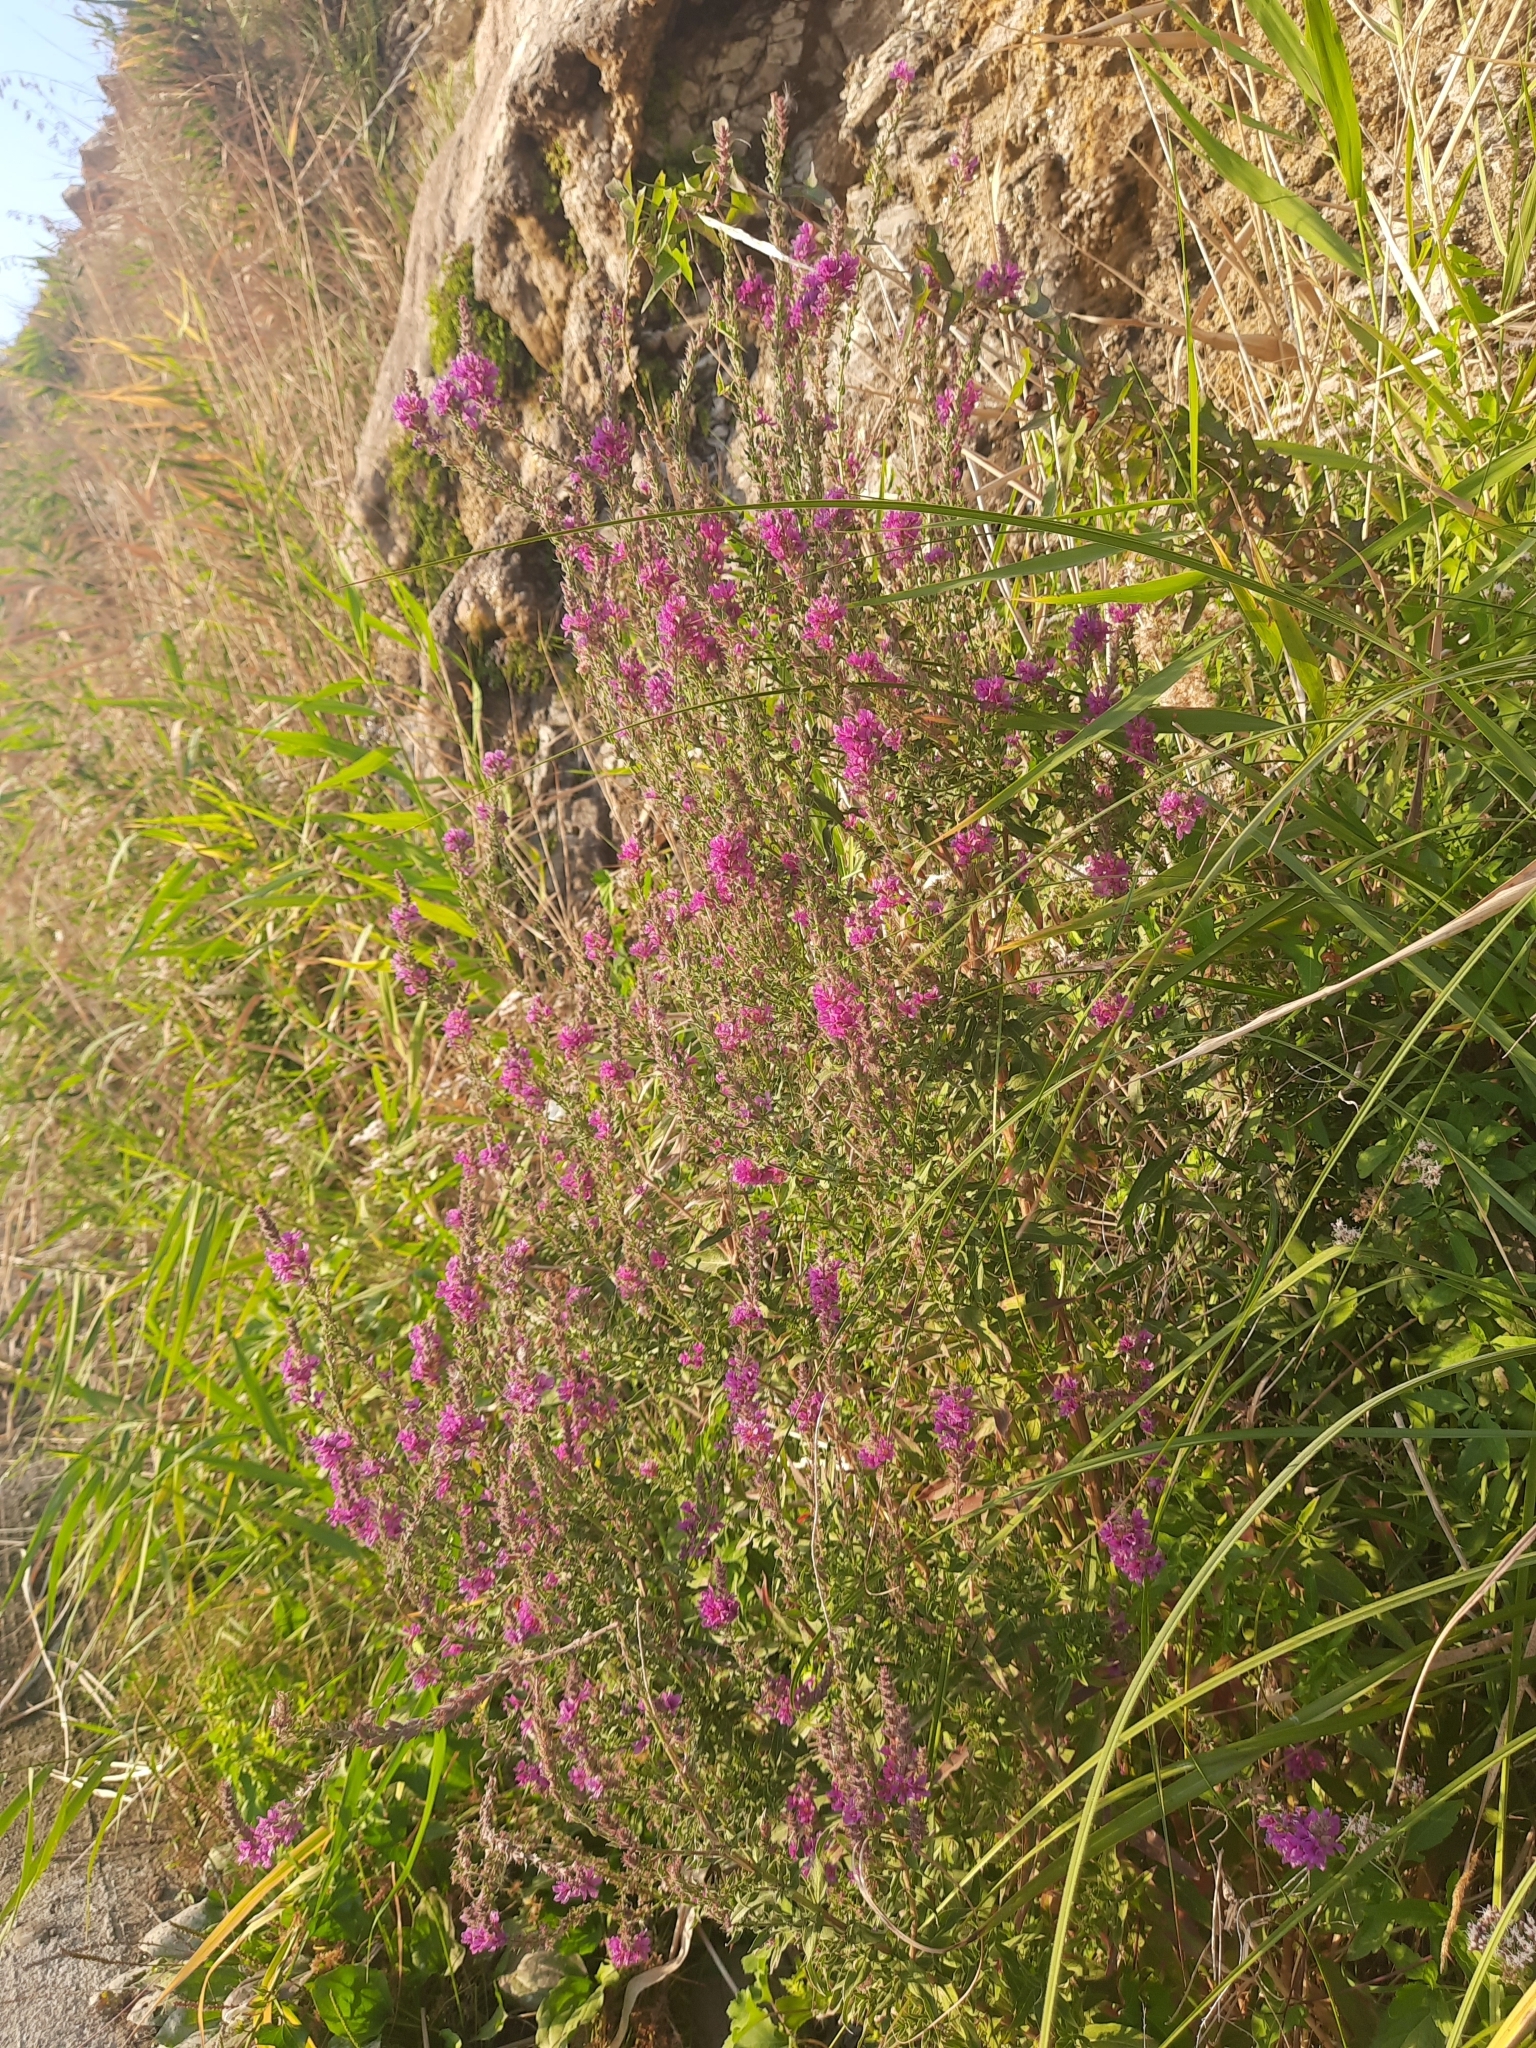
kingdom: Plantae
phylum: Tracheophyta
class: Magnoliopsida
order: Myrtales
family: Lythraceae
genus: Lythrum
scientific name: Lythrum salicaria
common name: Purple loosestrife
